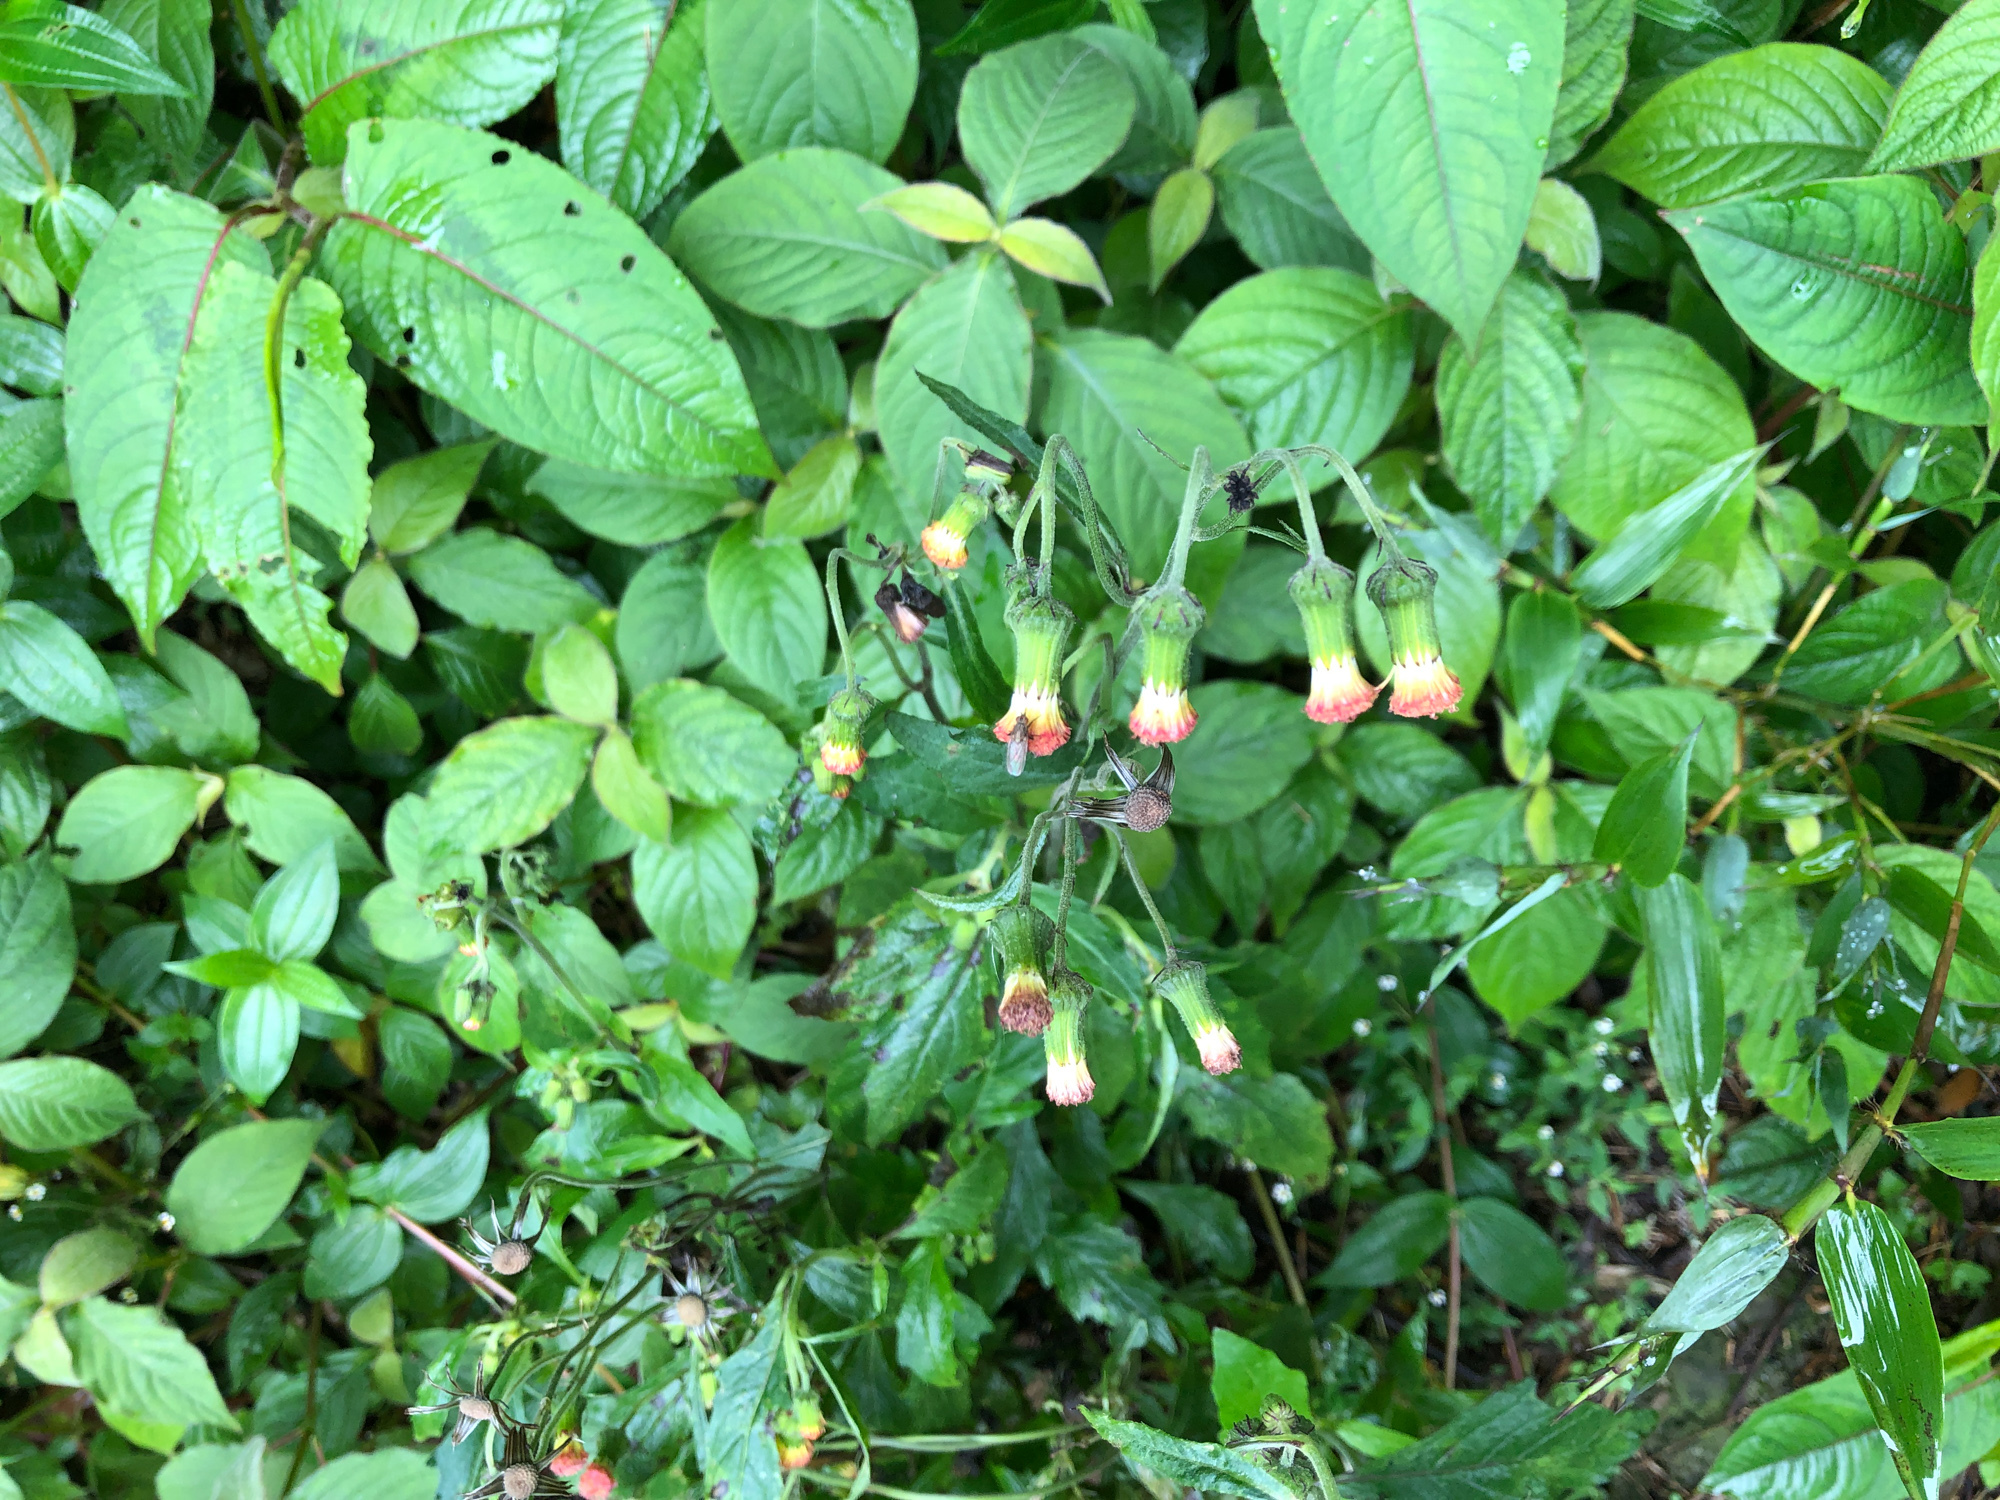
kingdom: Plantae
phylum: Tracheophyta
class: Magnoliopsida
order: Asterales
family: Asteraceae
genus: Crassocephalum
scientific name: Crassocephalum crepidioides
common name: Redflower ragleaf
